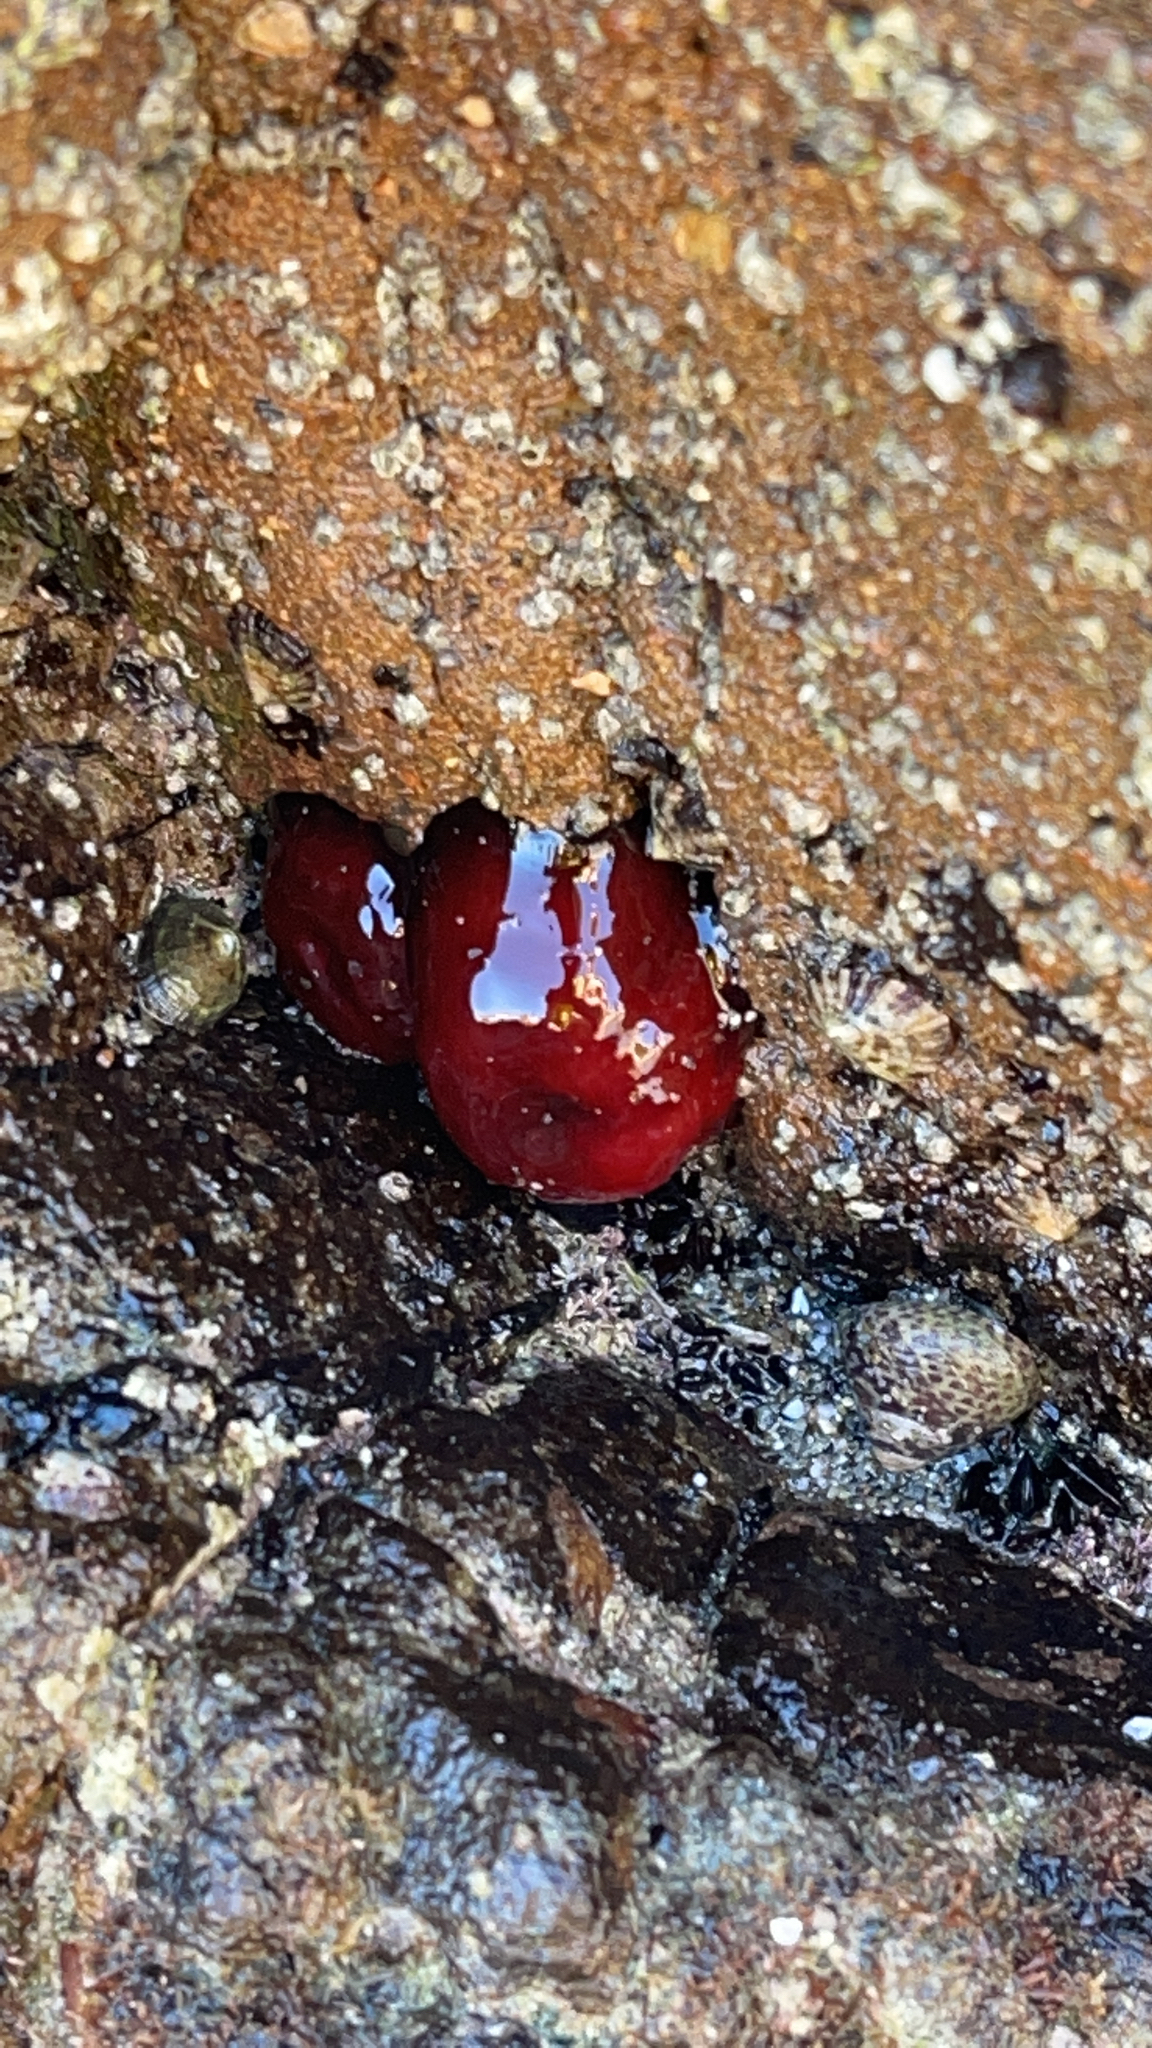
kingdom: Animalia
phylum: Cnidaria
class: Anthozoa
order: Actiniaria
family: Actiniidae
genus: Actinia
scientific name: Actinia mediterranea
